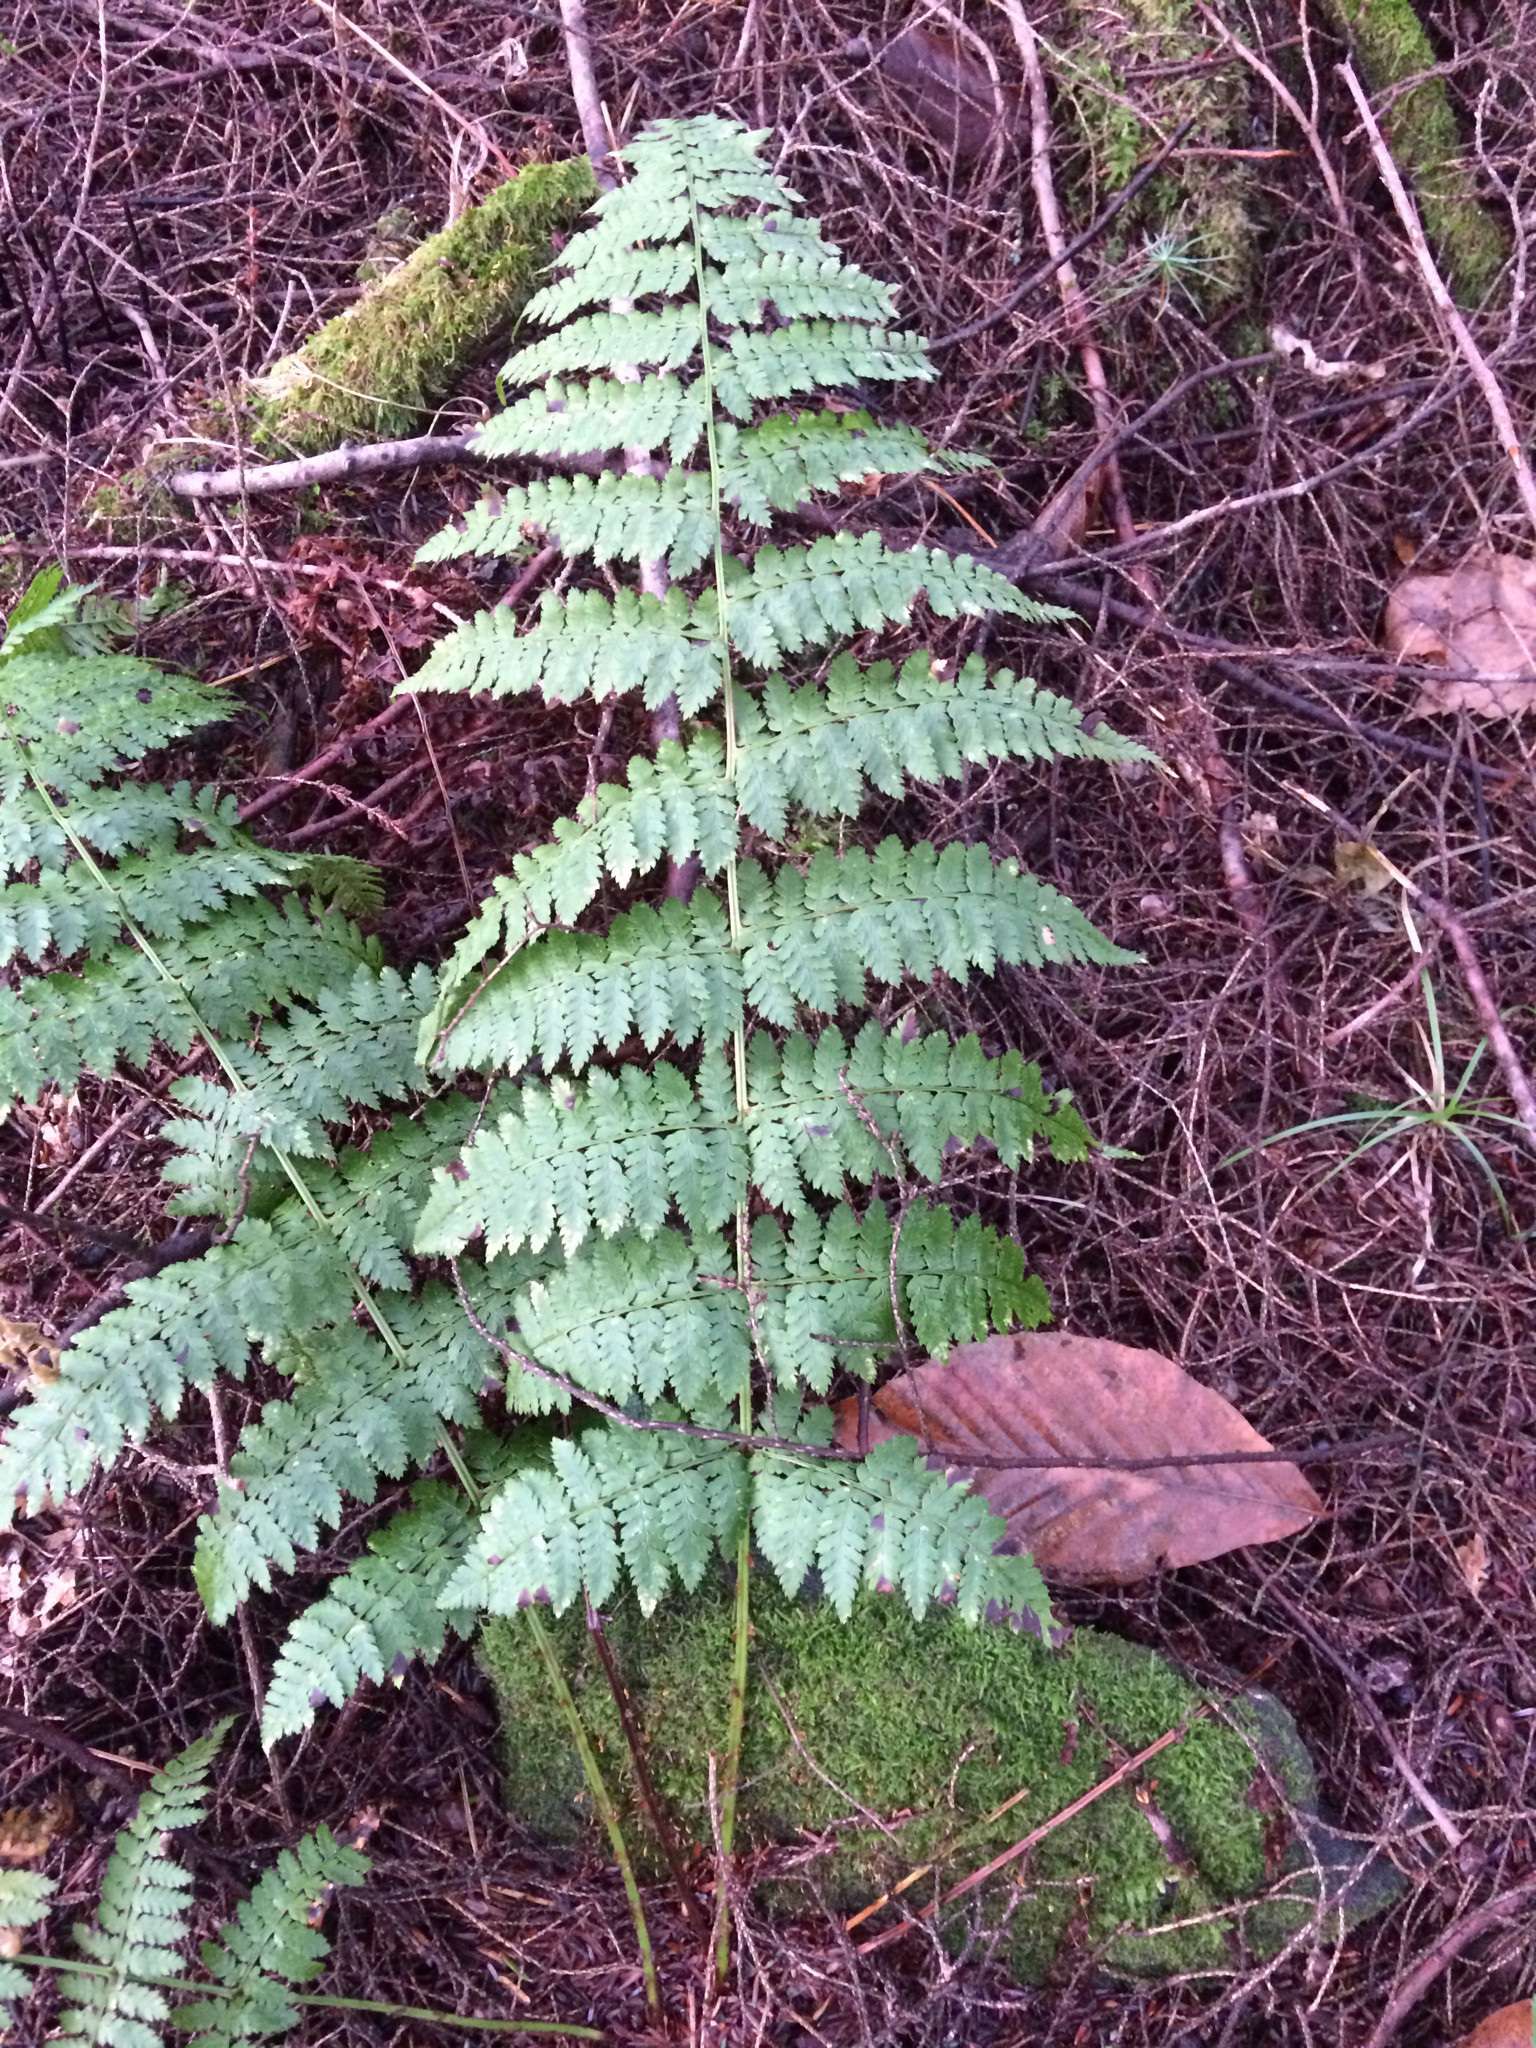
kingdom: Plantae
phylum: Tracheophyta
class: Polypodiopsida
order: Polypodiales
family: Dryopteridaceae
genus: Dryopteris
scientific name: Dryopteris intermedia
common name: Evergreen wood fern
